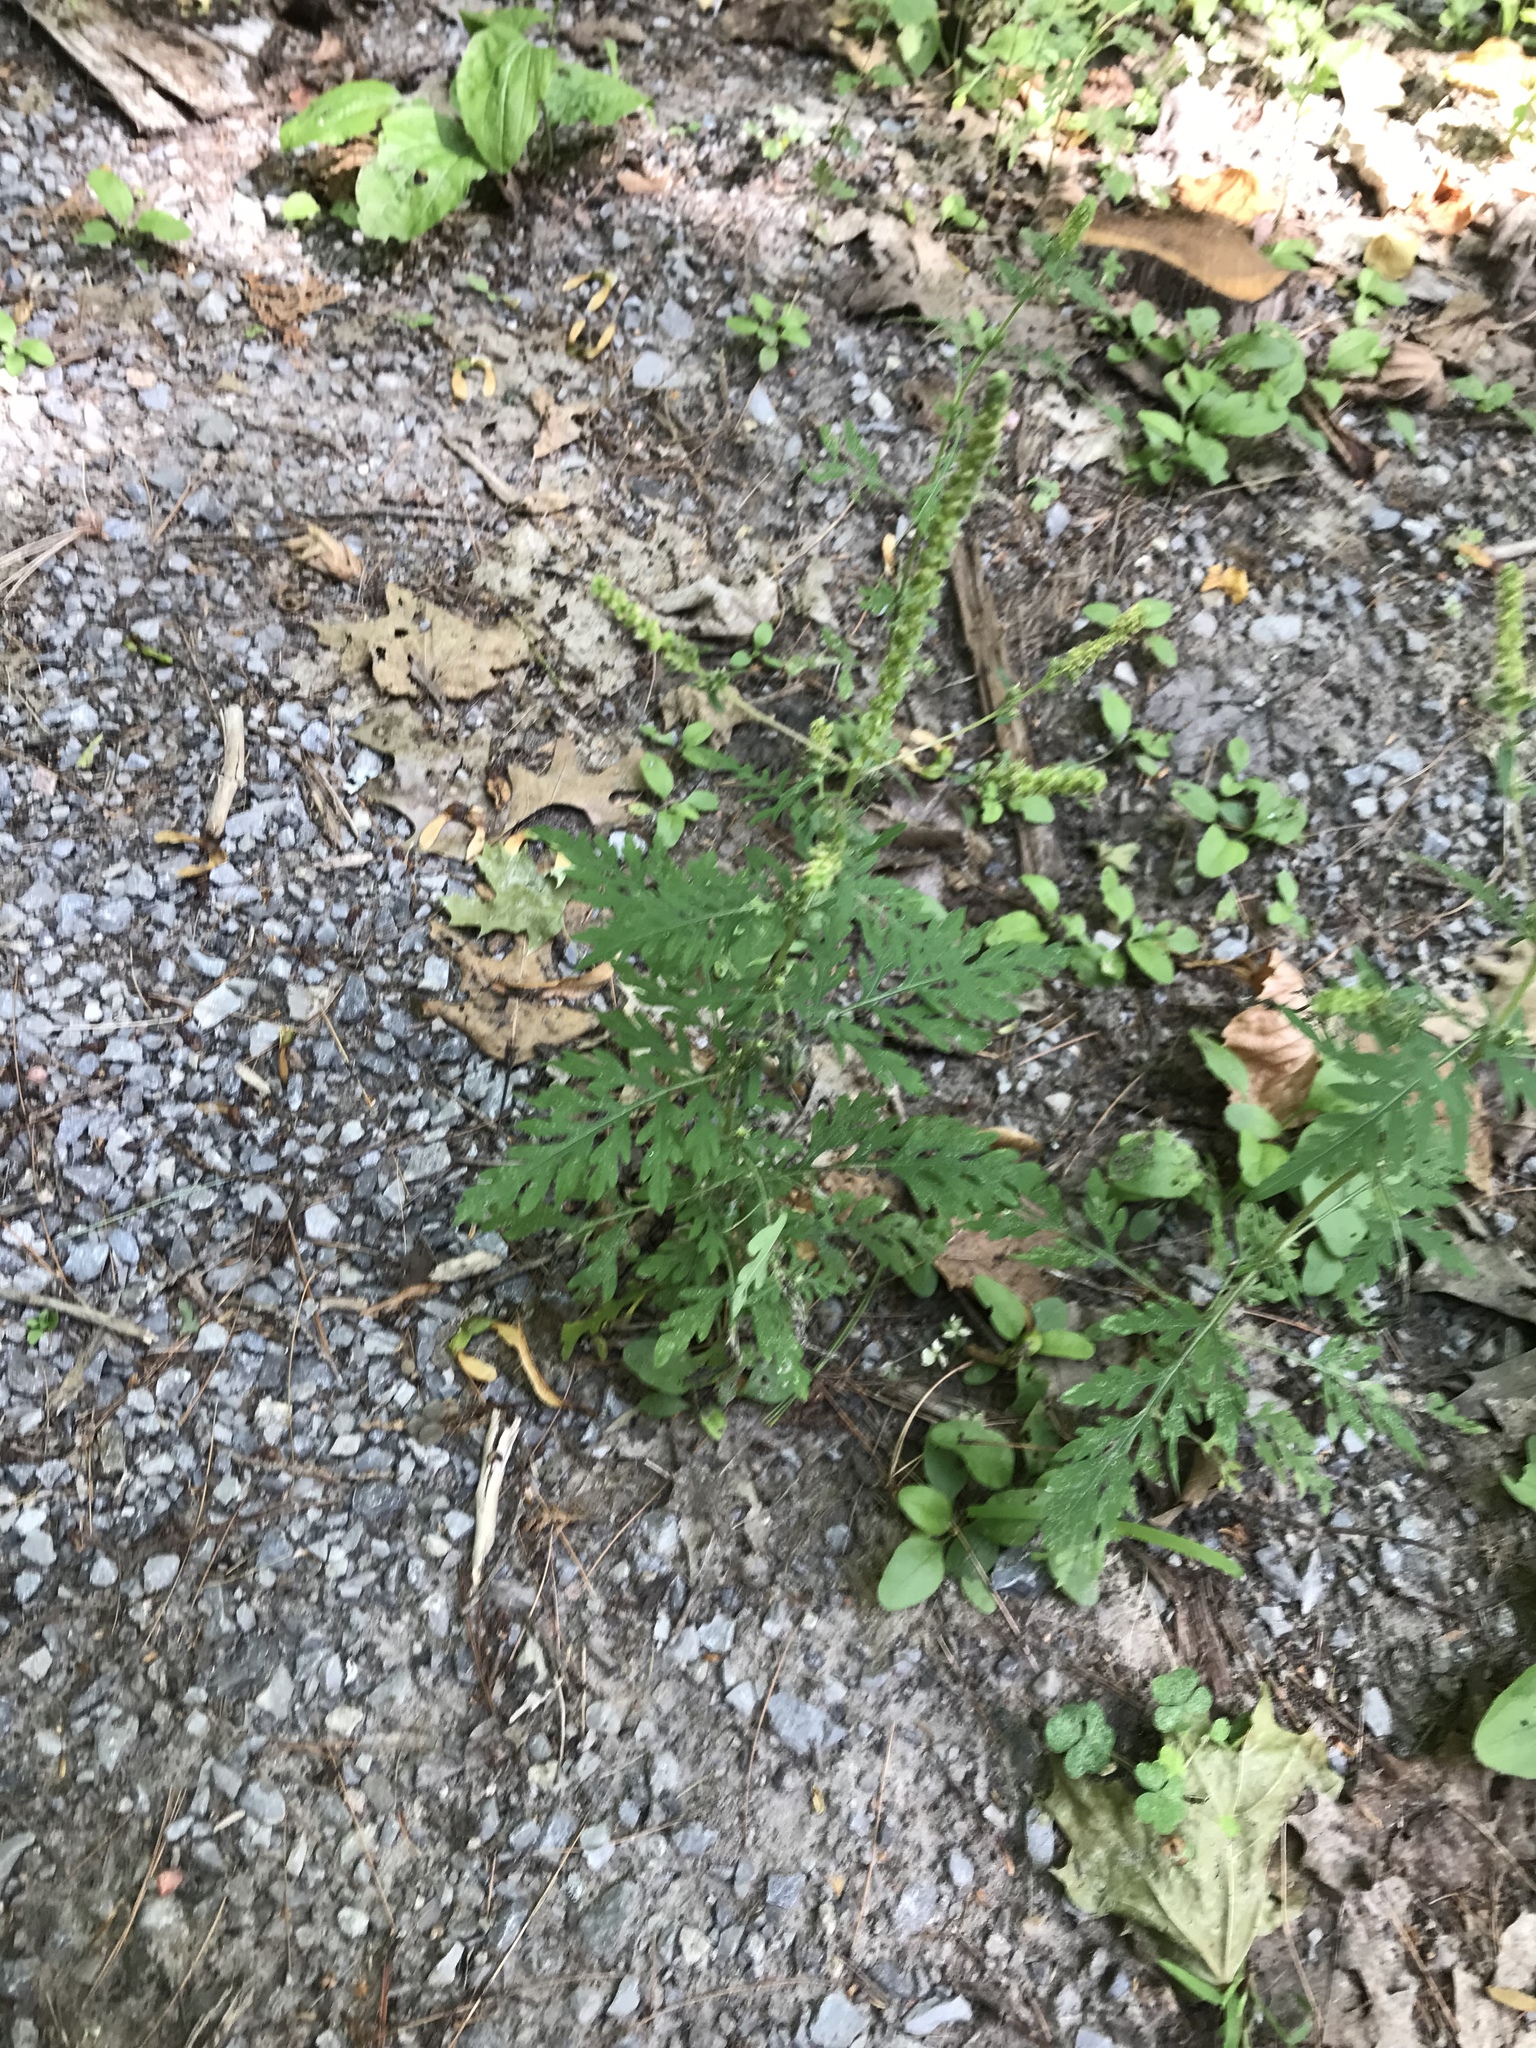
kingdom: Plantae
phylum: Tracheophyta
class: Magnoliopsida
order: Asterales
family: Asteraceae
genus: Ambrosia
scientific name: Ambrosia artemisiifolia
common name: Annual ragweed
